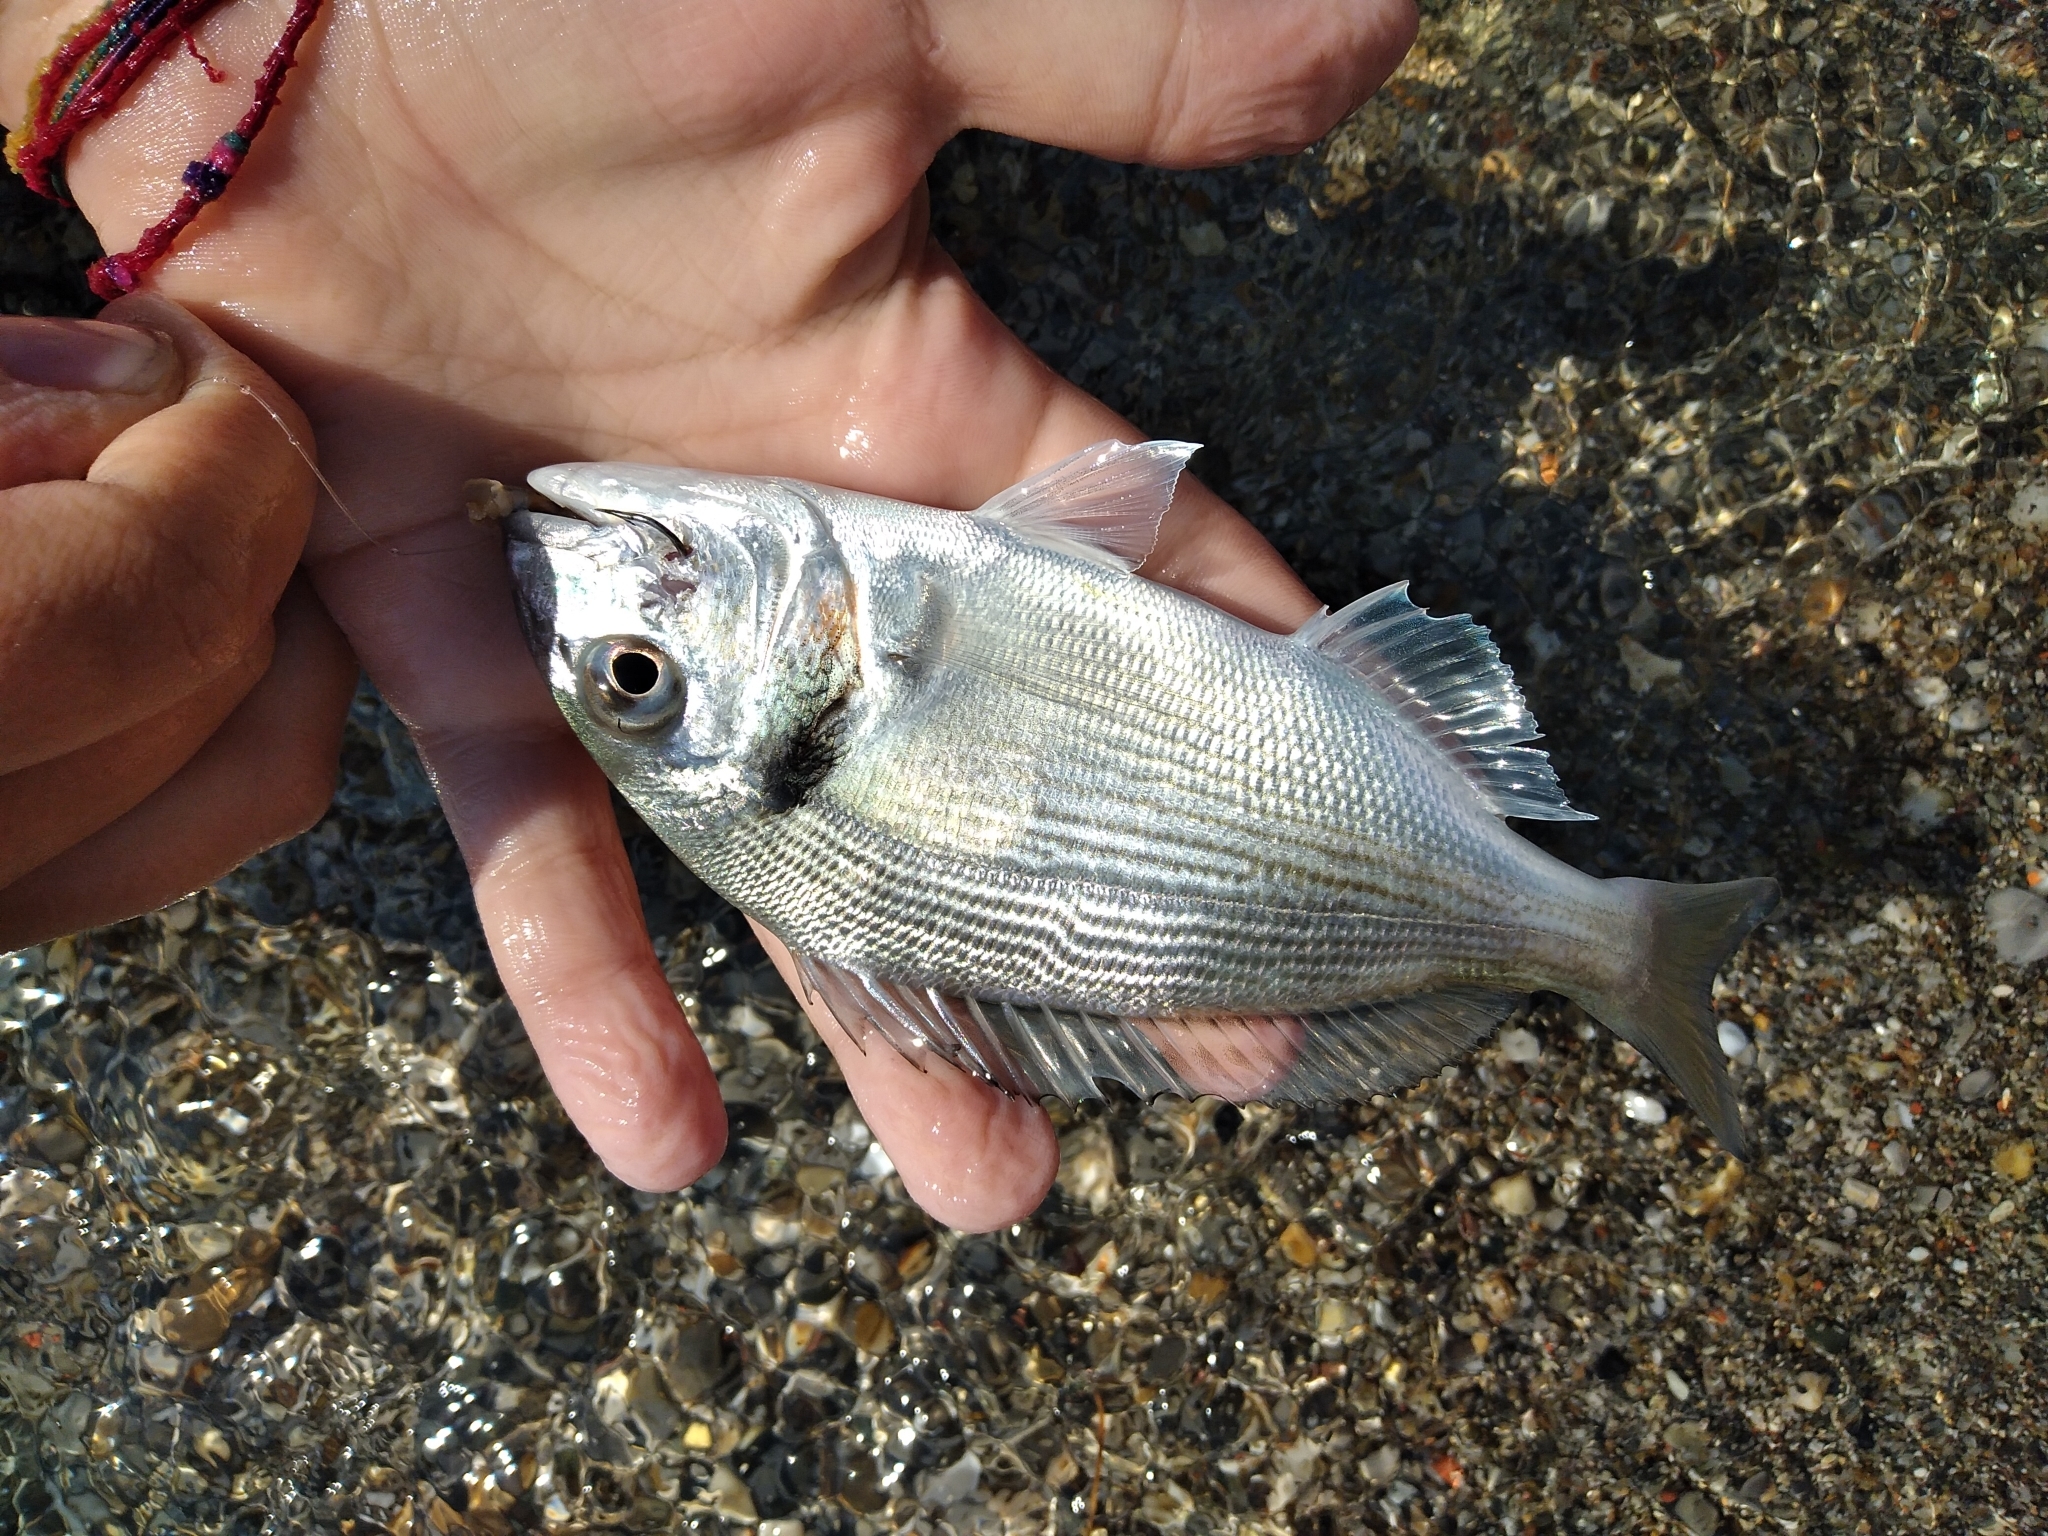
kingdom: Animalia
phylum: Chordata
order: Perciformes
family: Sparidae
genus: Sparus
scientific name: Sparus aurata
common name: Gilthead
